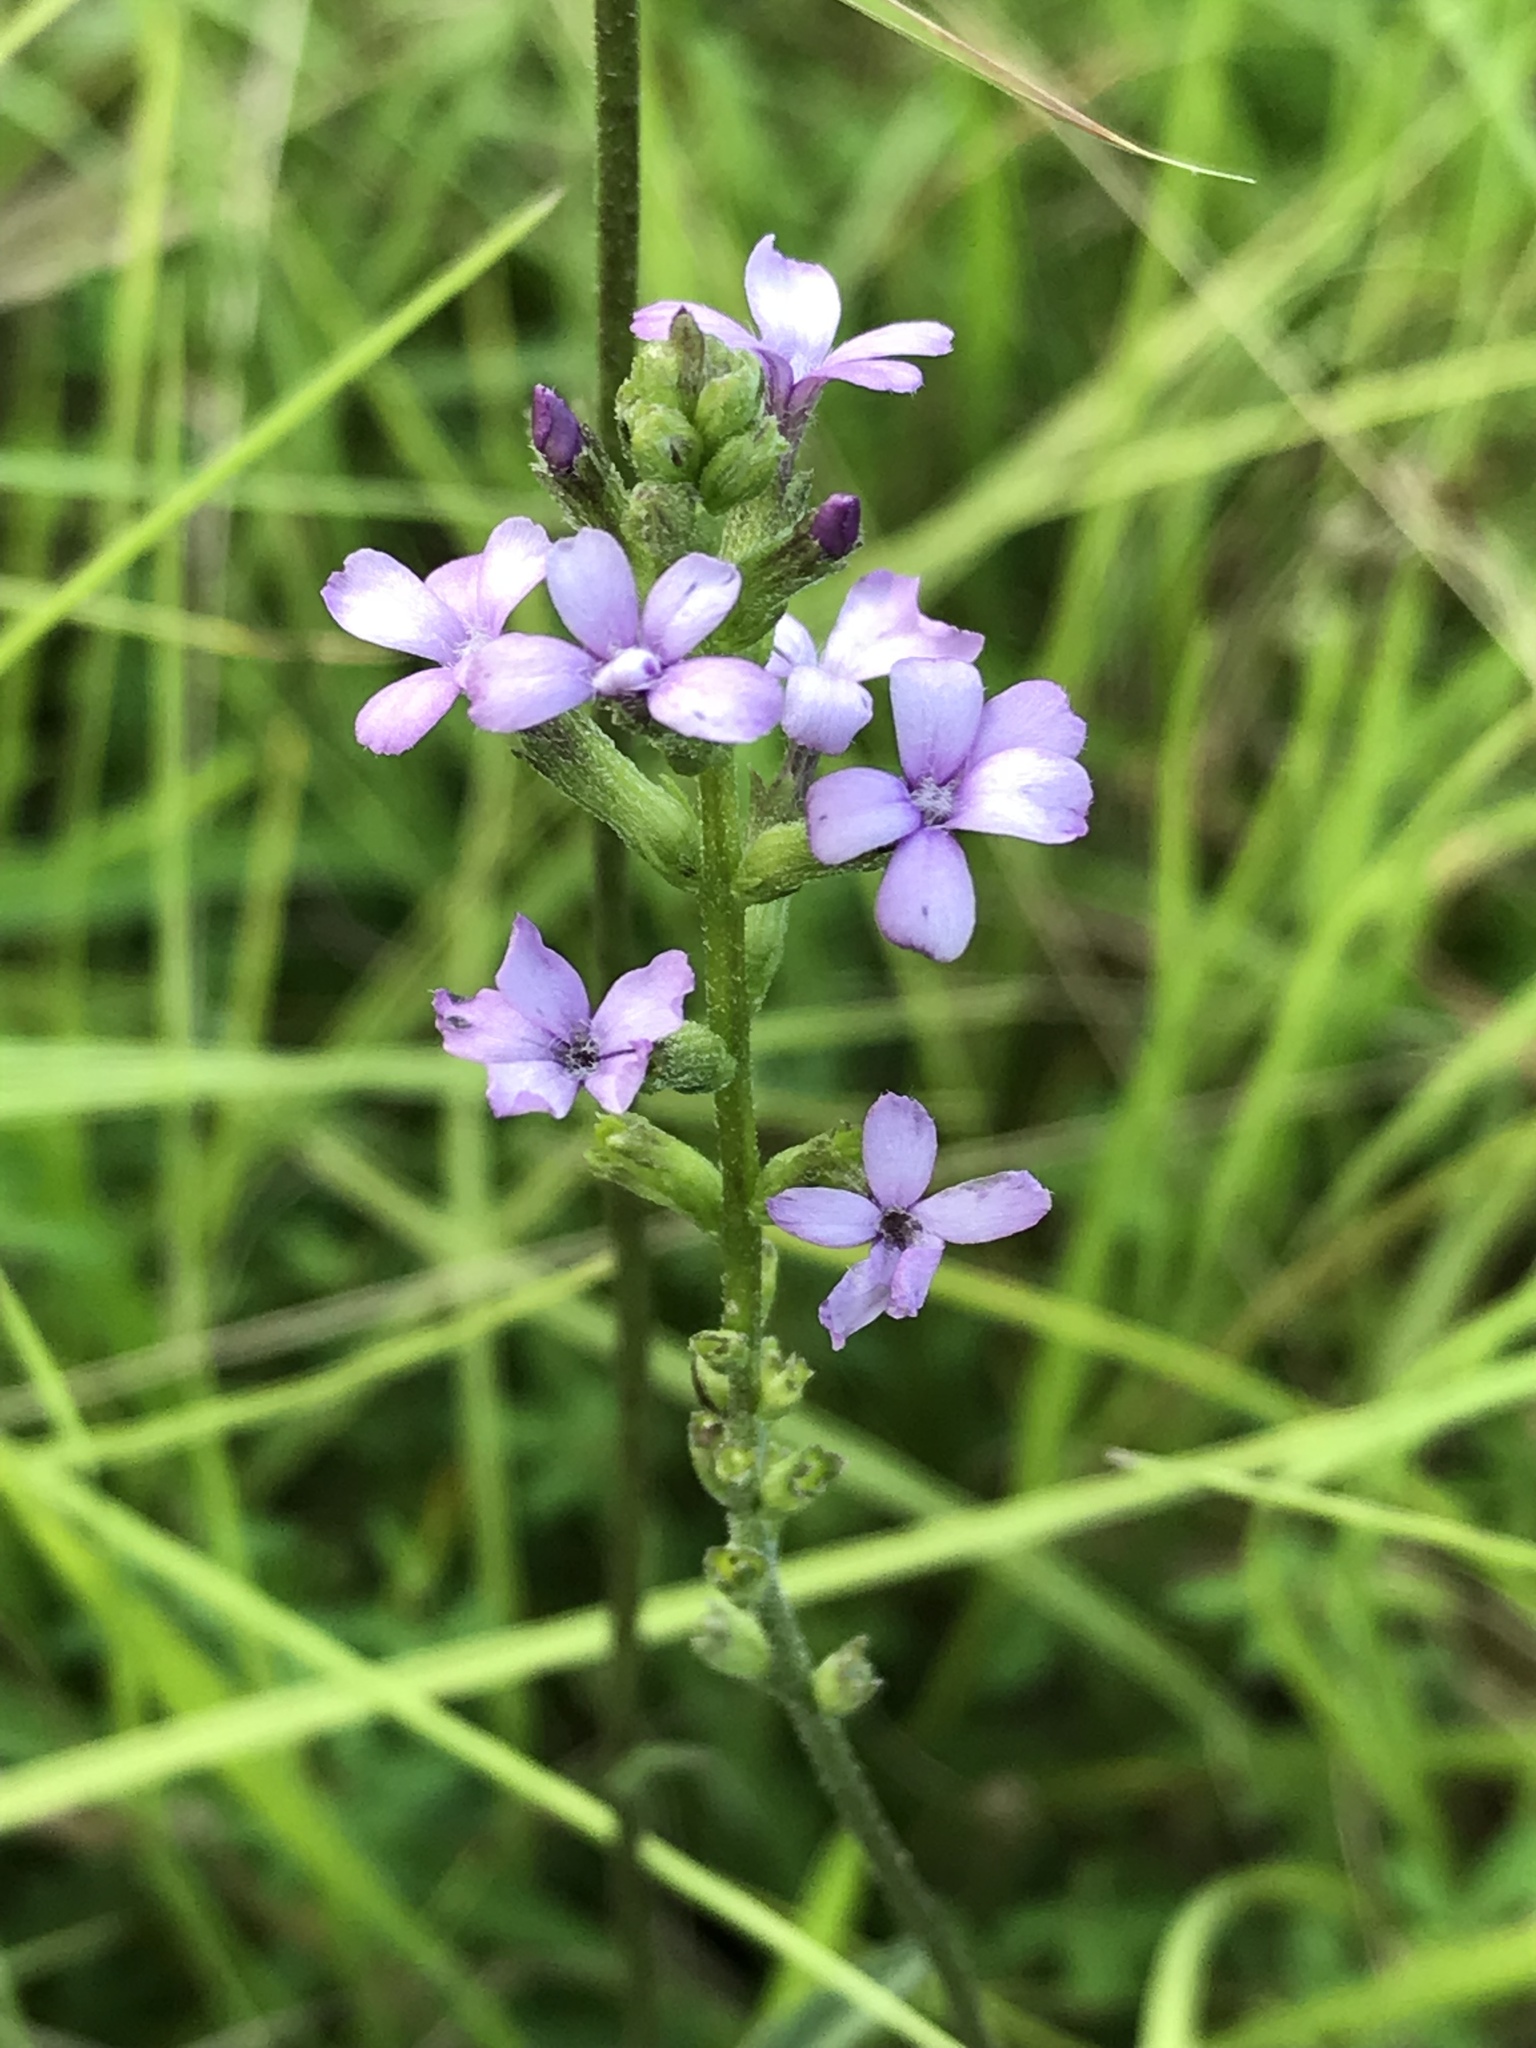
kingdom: Plantae
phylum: Tracheophyta
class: Magnoliopsida
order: Lamiales
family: Orobanchaceae
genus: Buchnera
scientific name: Buchnera floridana
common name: Florida bluehearts
